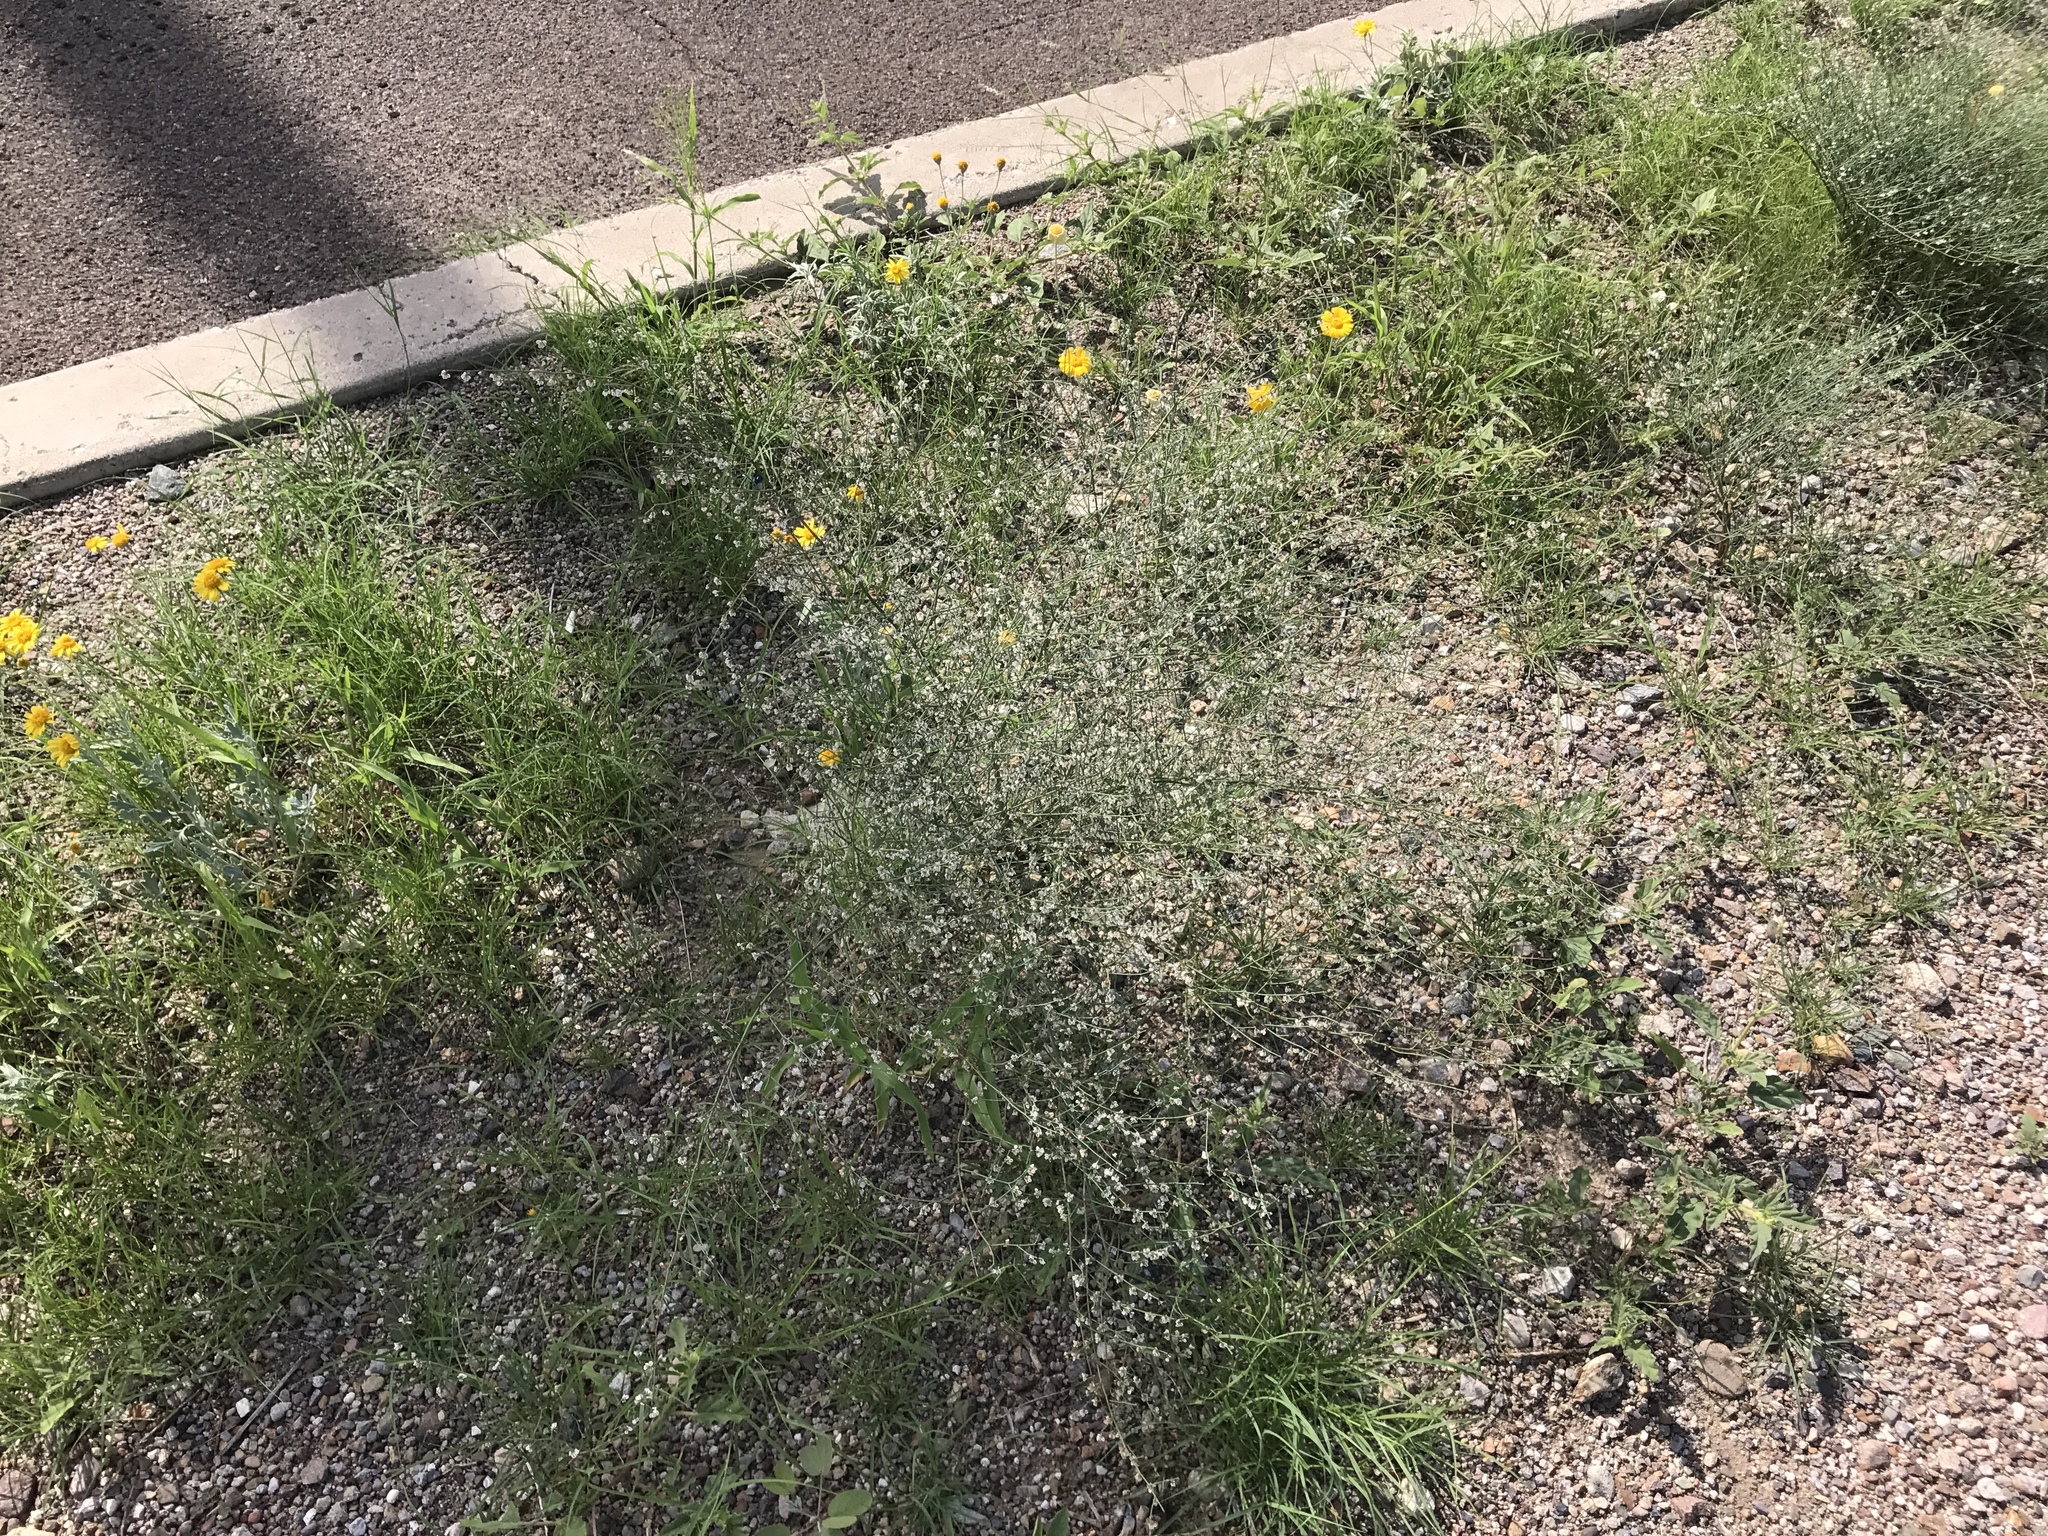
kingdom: Plantae
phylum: Tracheophyta
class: Magnoliopsida
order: Caryophyllales
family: Polygonaceae
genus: Eriogonum
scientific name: Eriogonum deflexum
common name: Skeleton-weed
